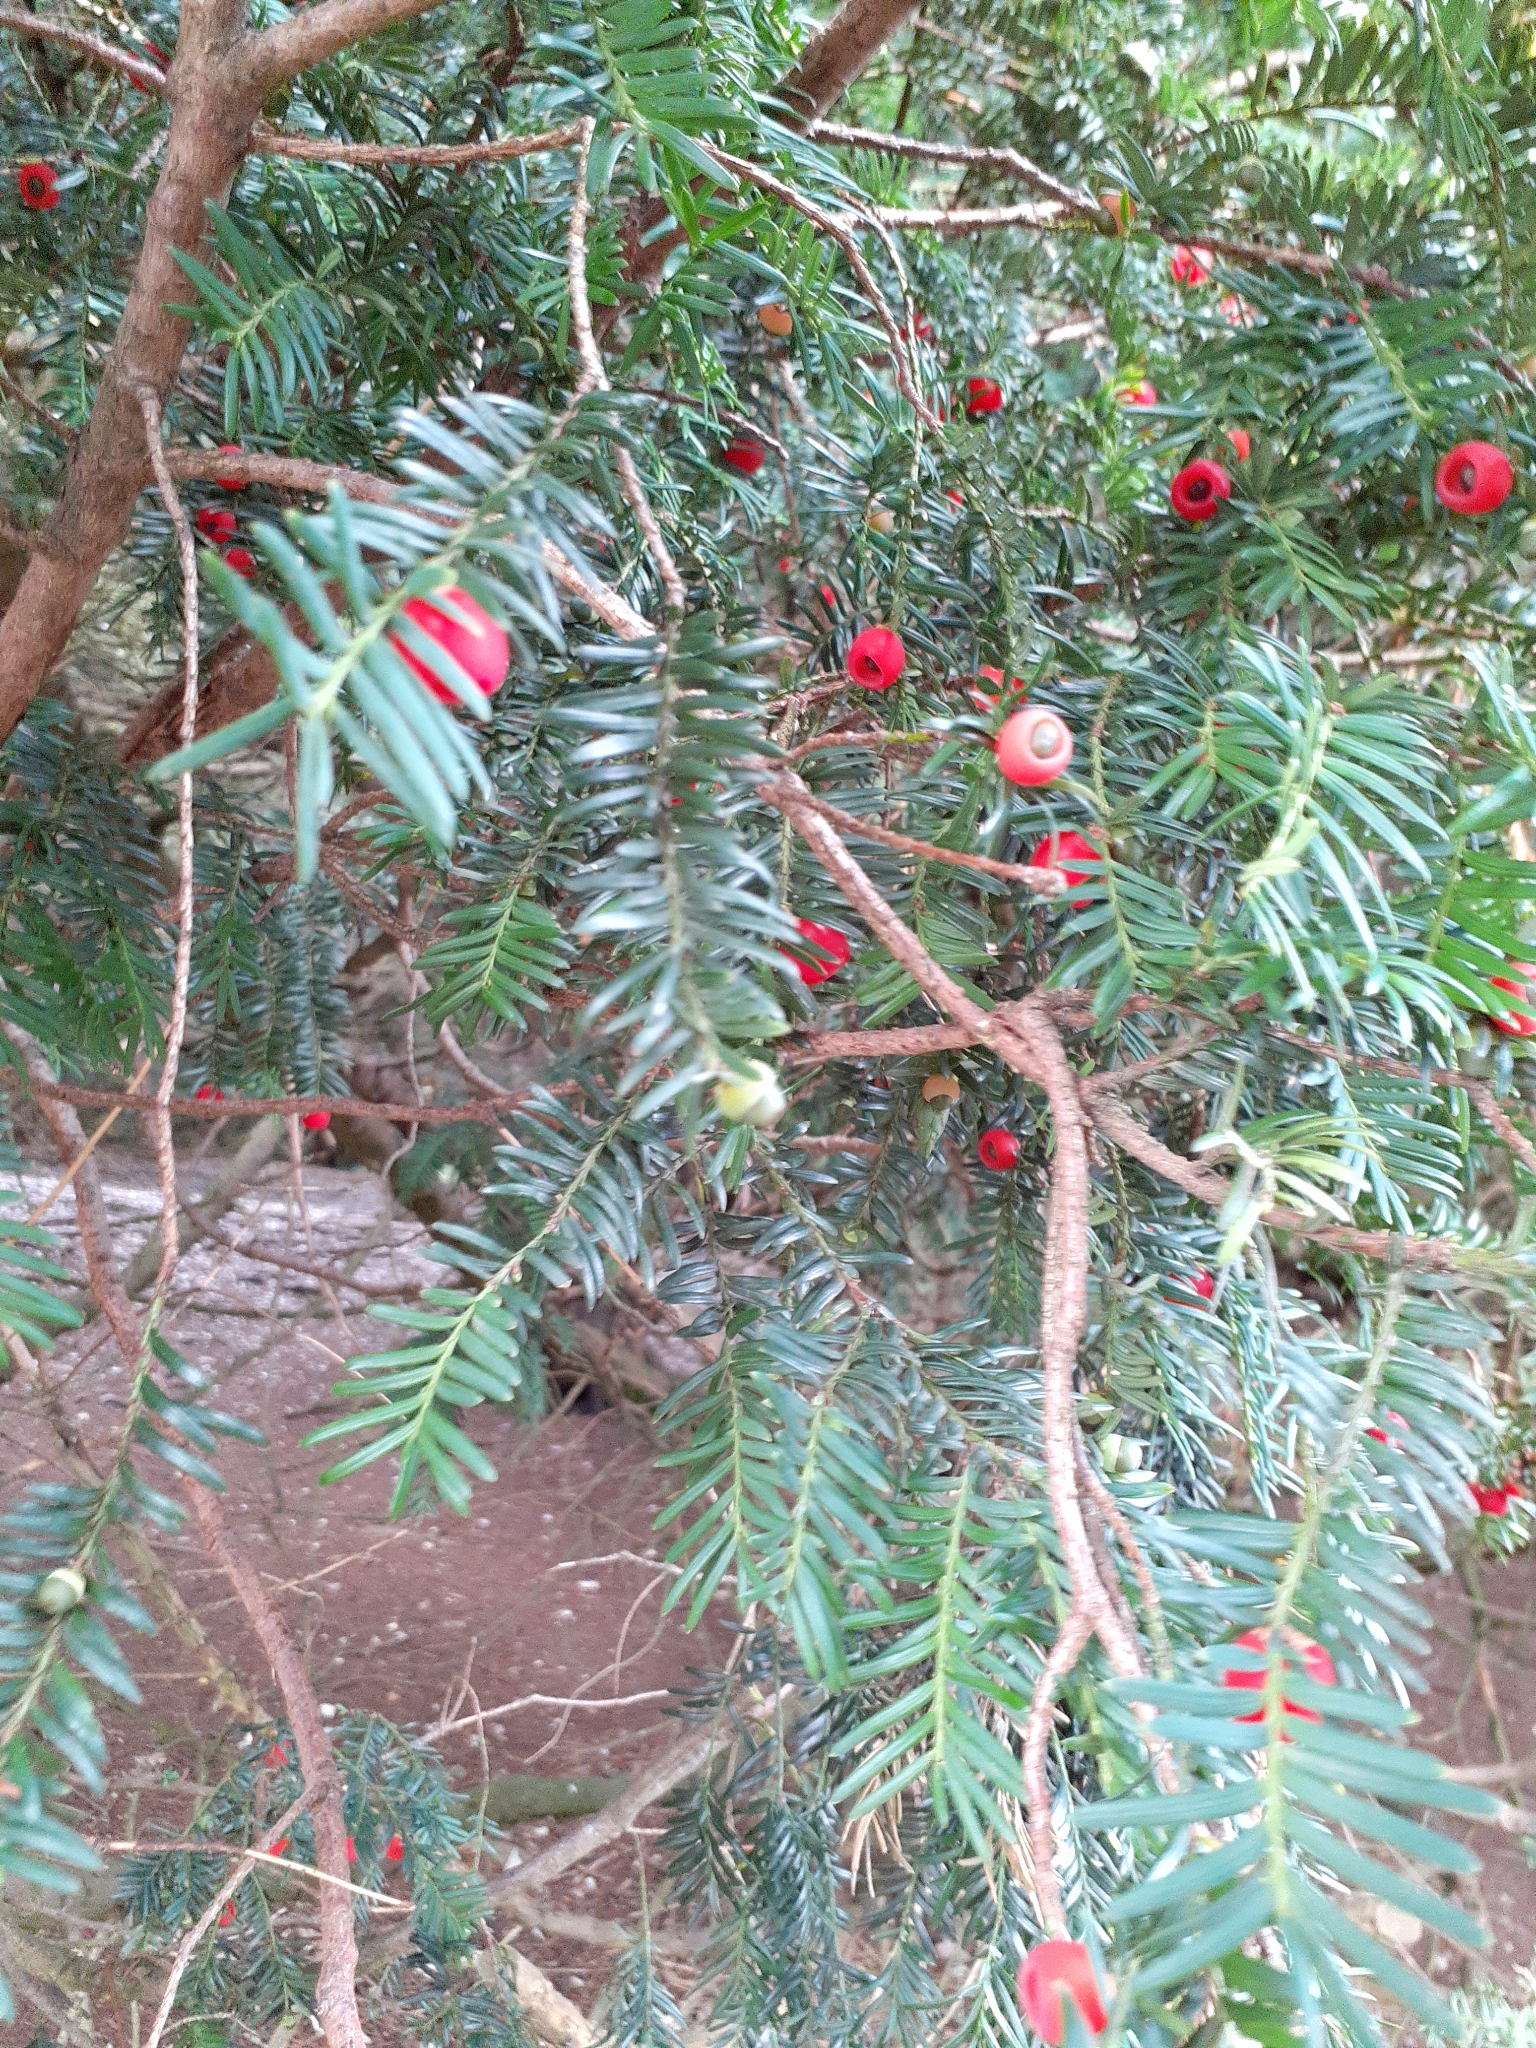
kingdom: Plantae
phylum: Tracheophyta
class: Pinopsida
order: Pinales
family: Taxaceae
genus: Taxus
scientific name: Taxus baccata
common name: Yew
